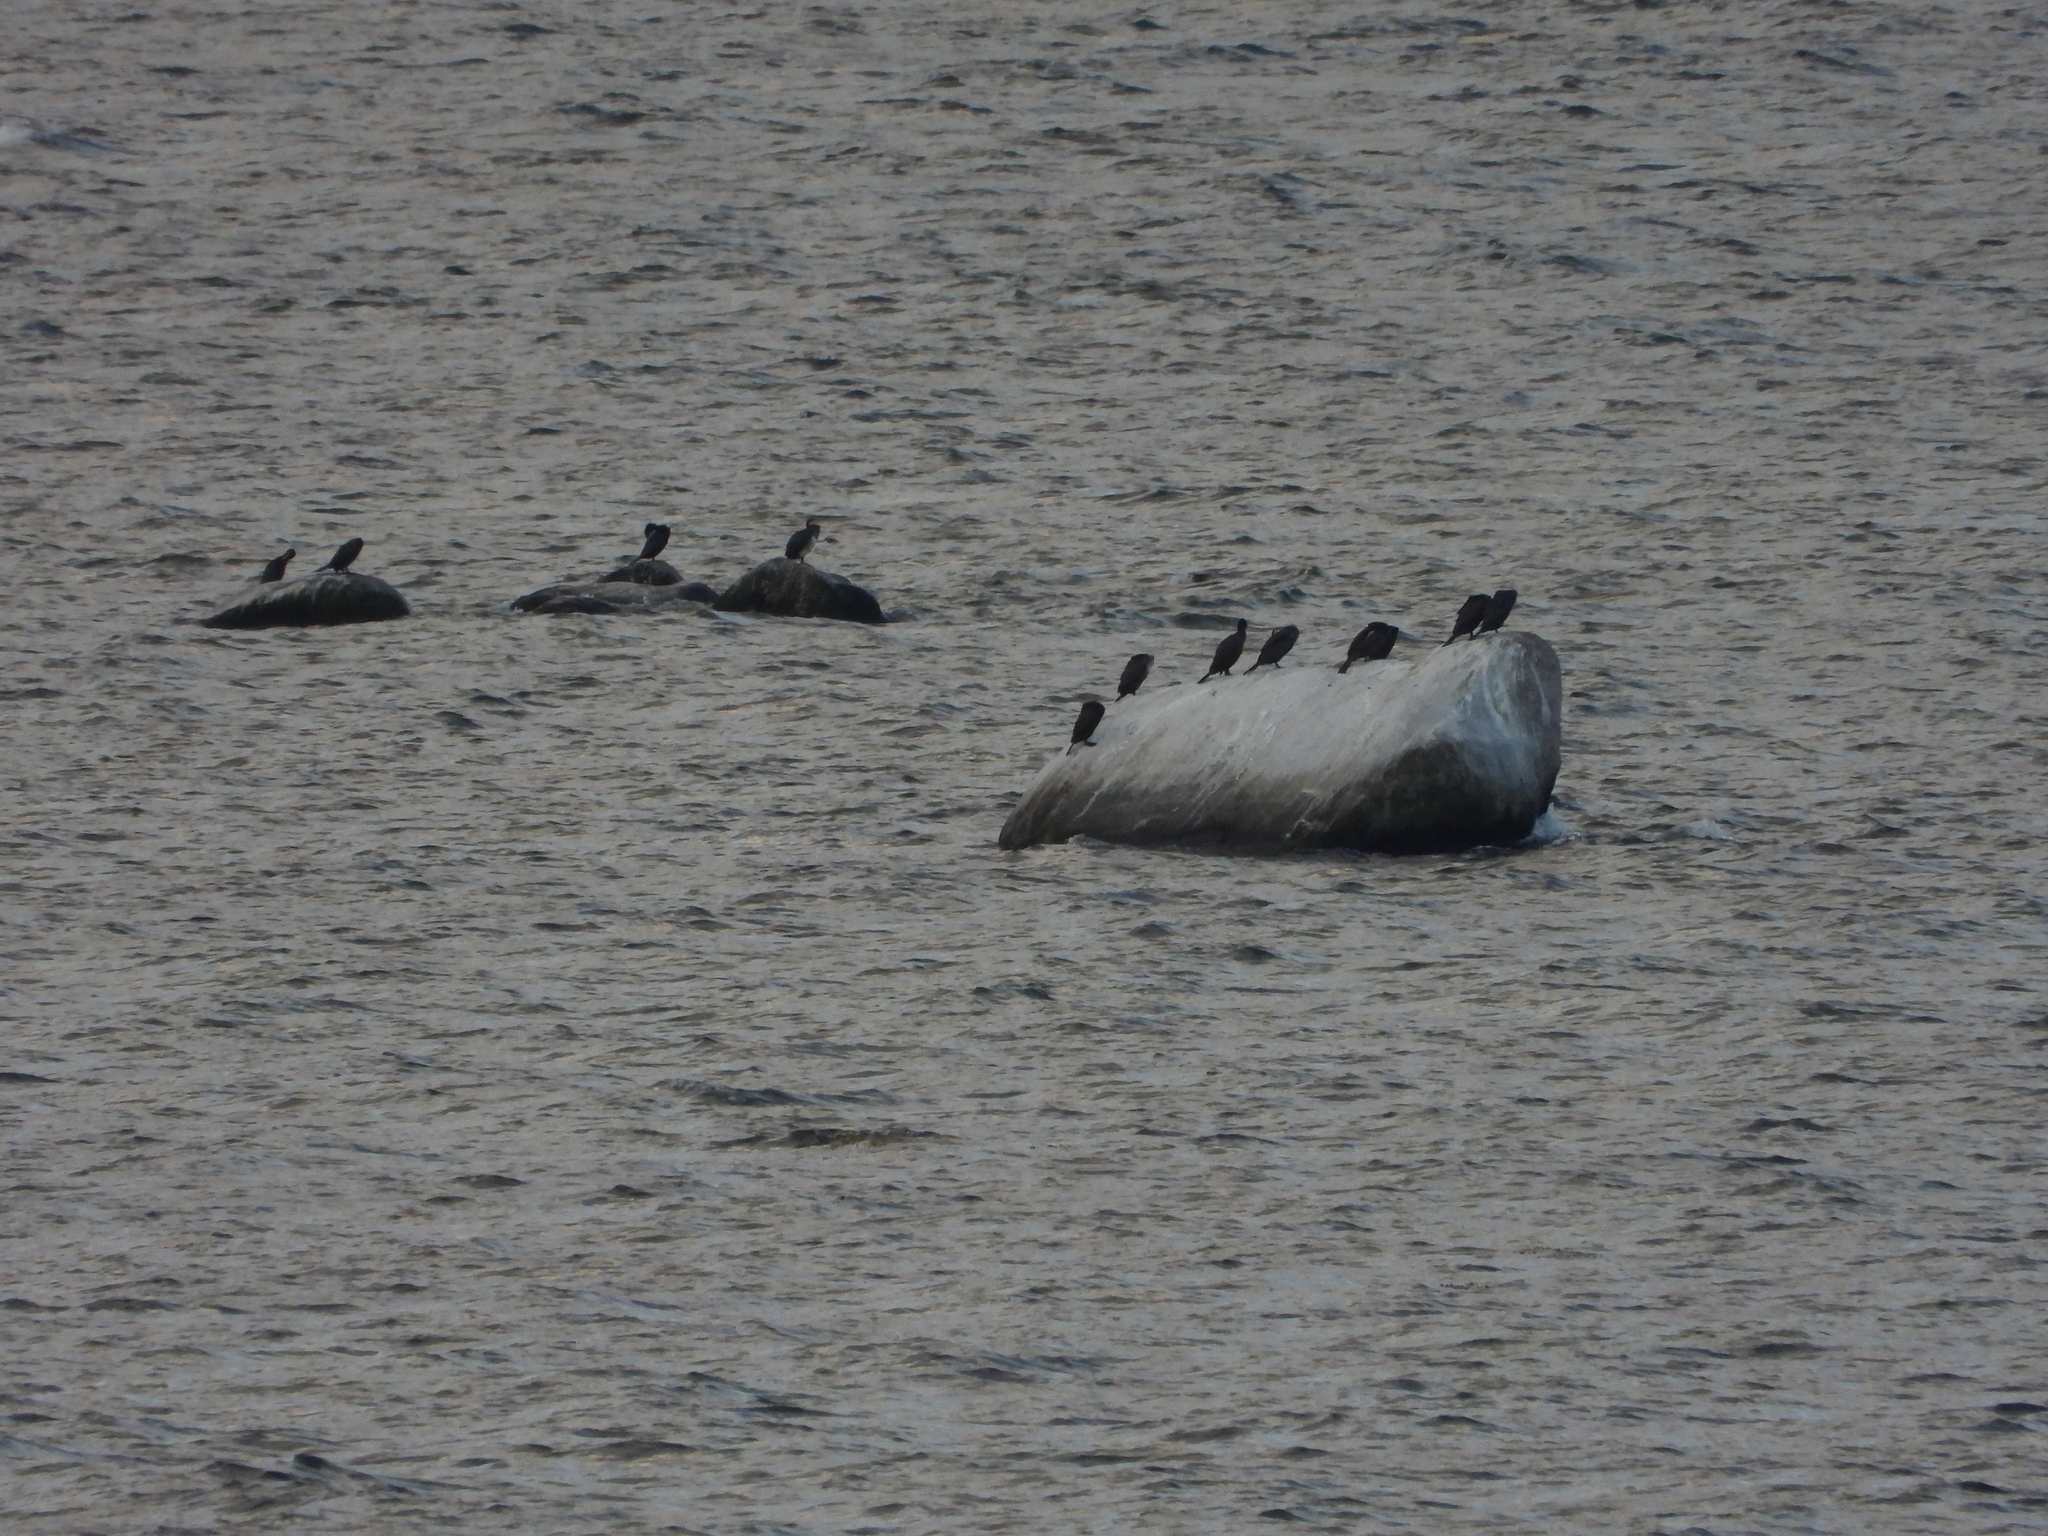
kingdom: Animalia
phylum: Chordata
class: Aves
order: Suliformes
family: Phalacrocoracidae
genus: Phalacrocorax
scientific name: Phalacrocorax carbo
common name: Great cormorant
